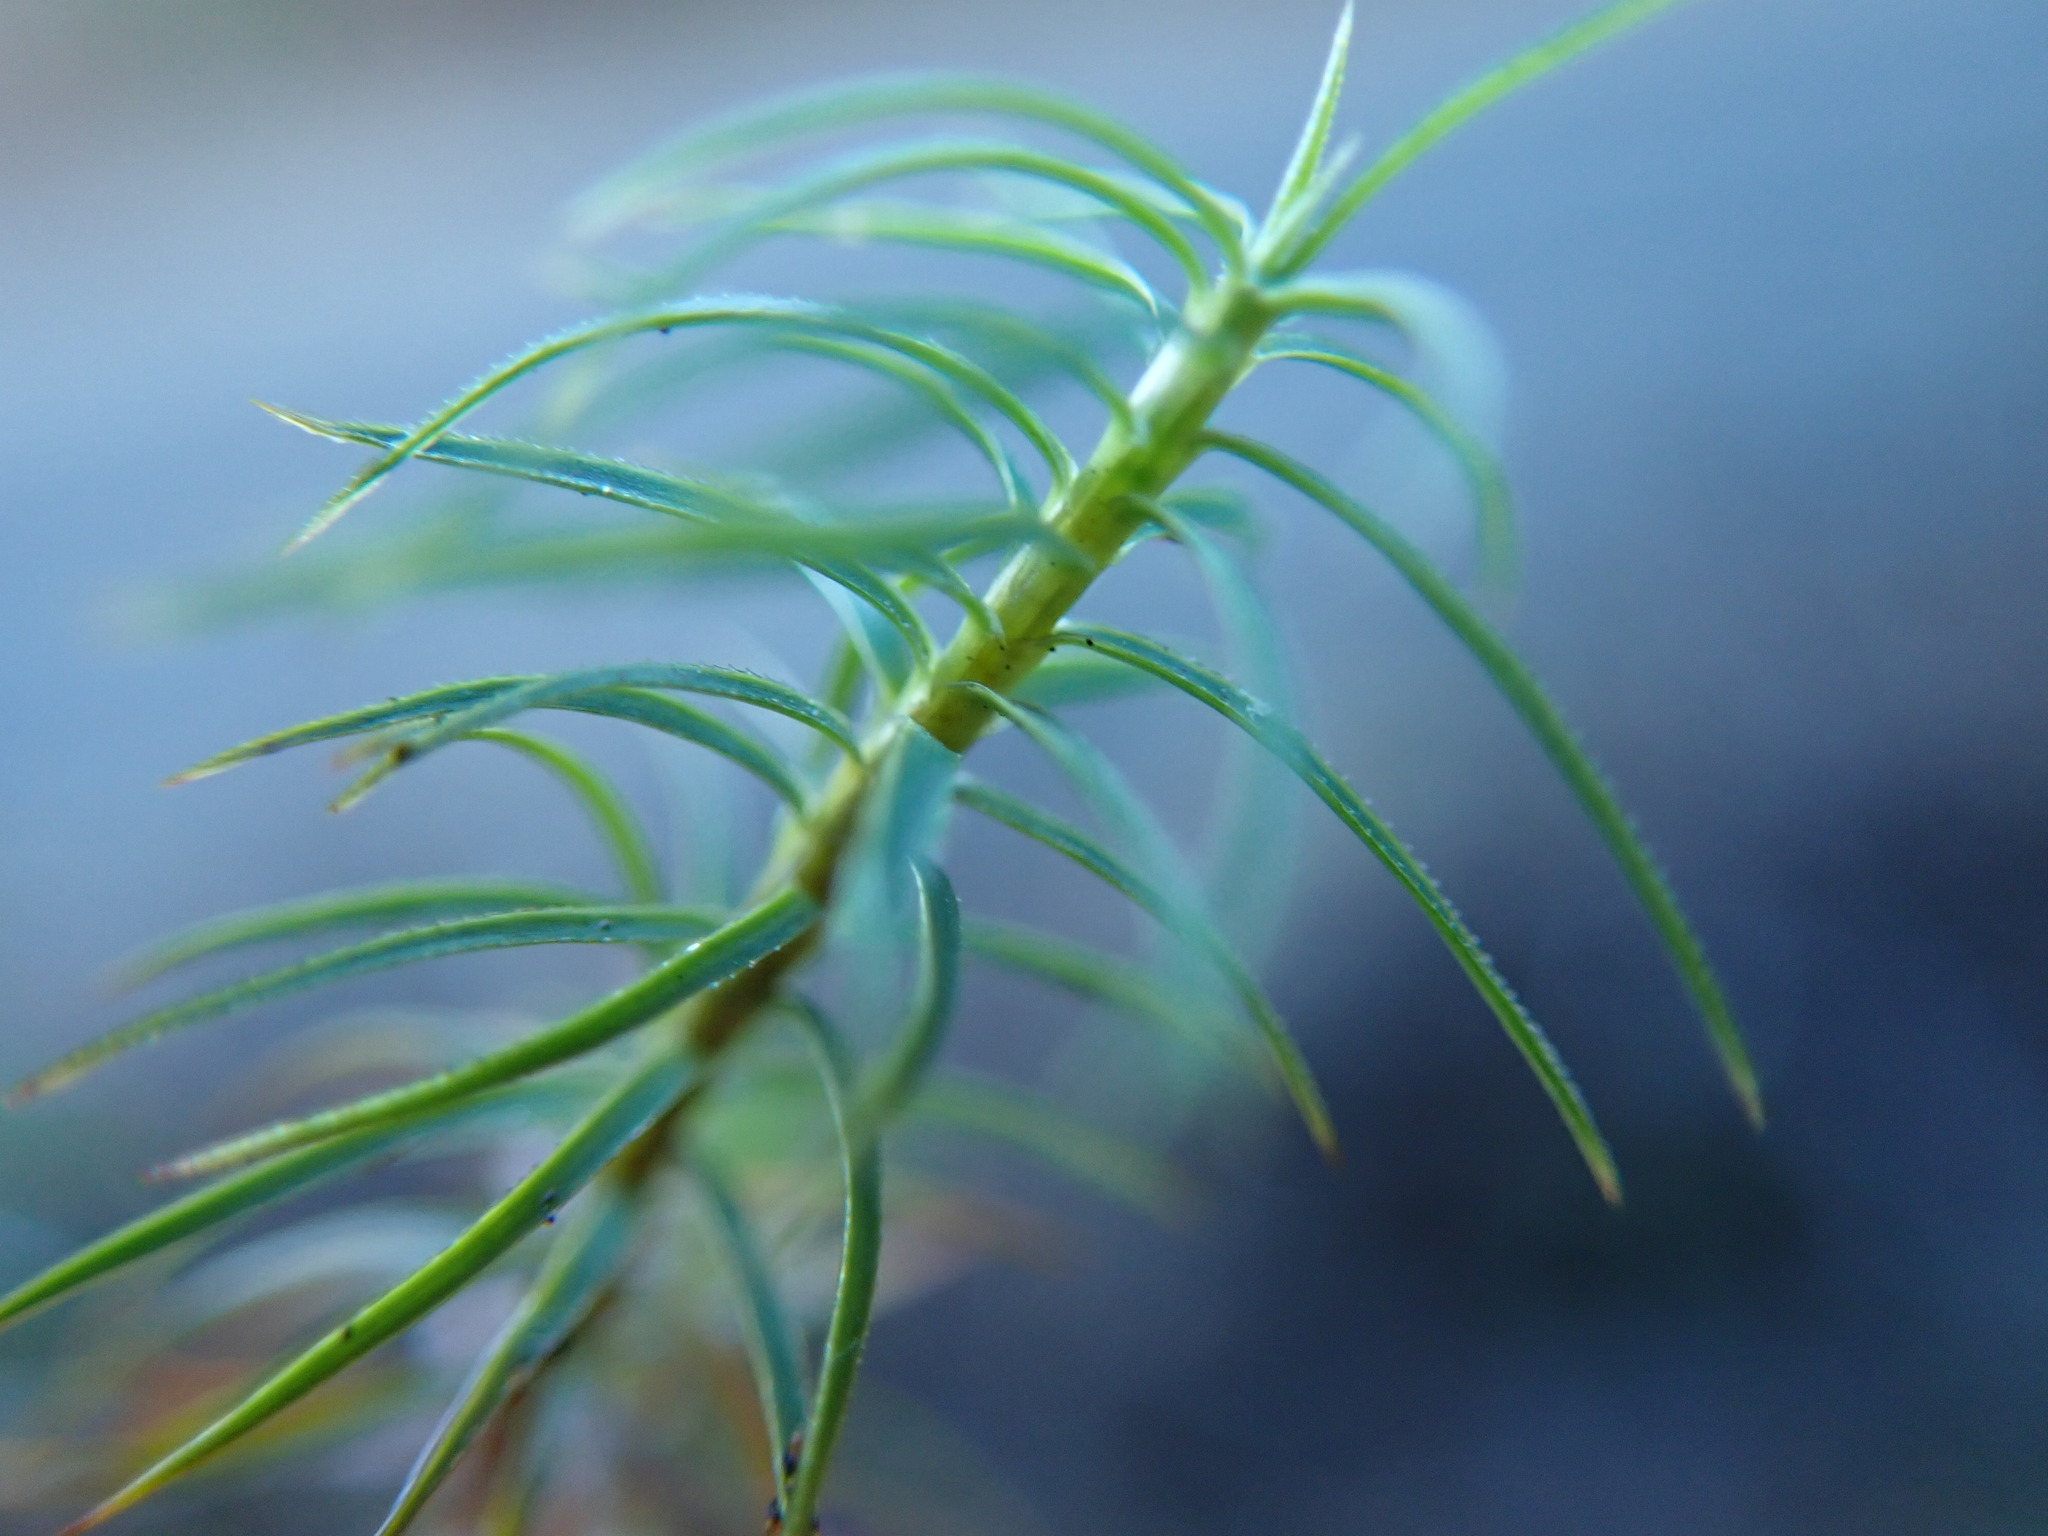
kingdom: Plantae
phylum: Bryophyta
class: Polytrichopsida
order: Polytrichales
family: Polytrichaceae
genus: Polytrichastrum
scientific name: Polytrichastrum alpinum
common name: Alpine haircap
